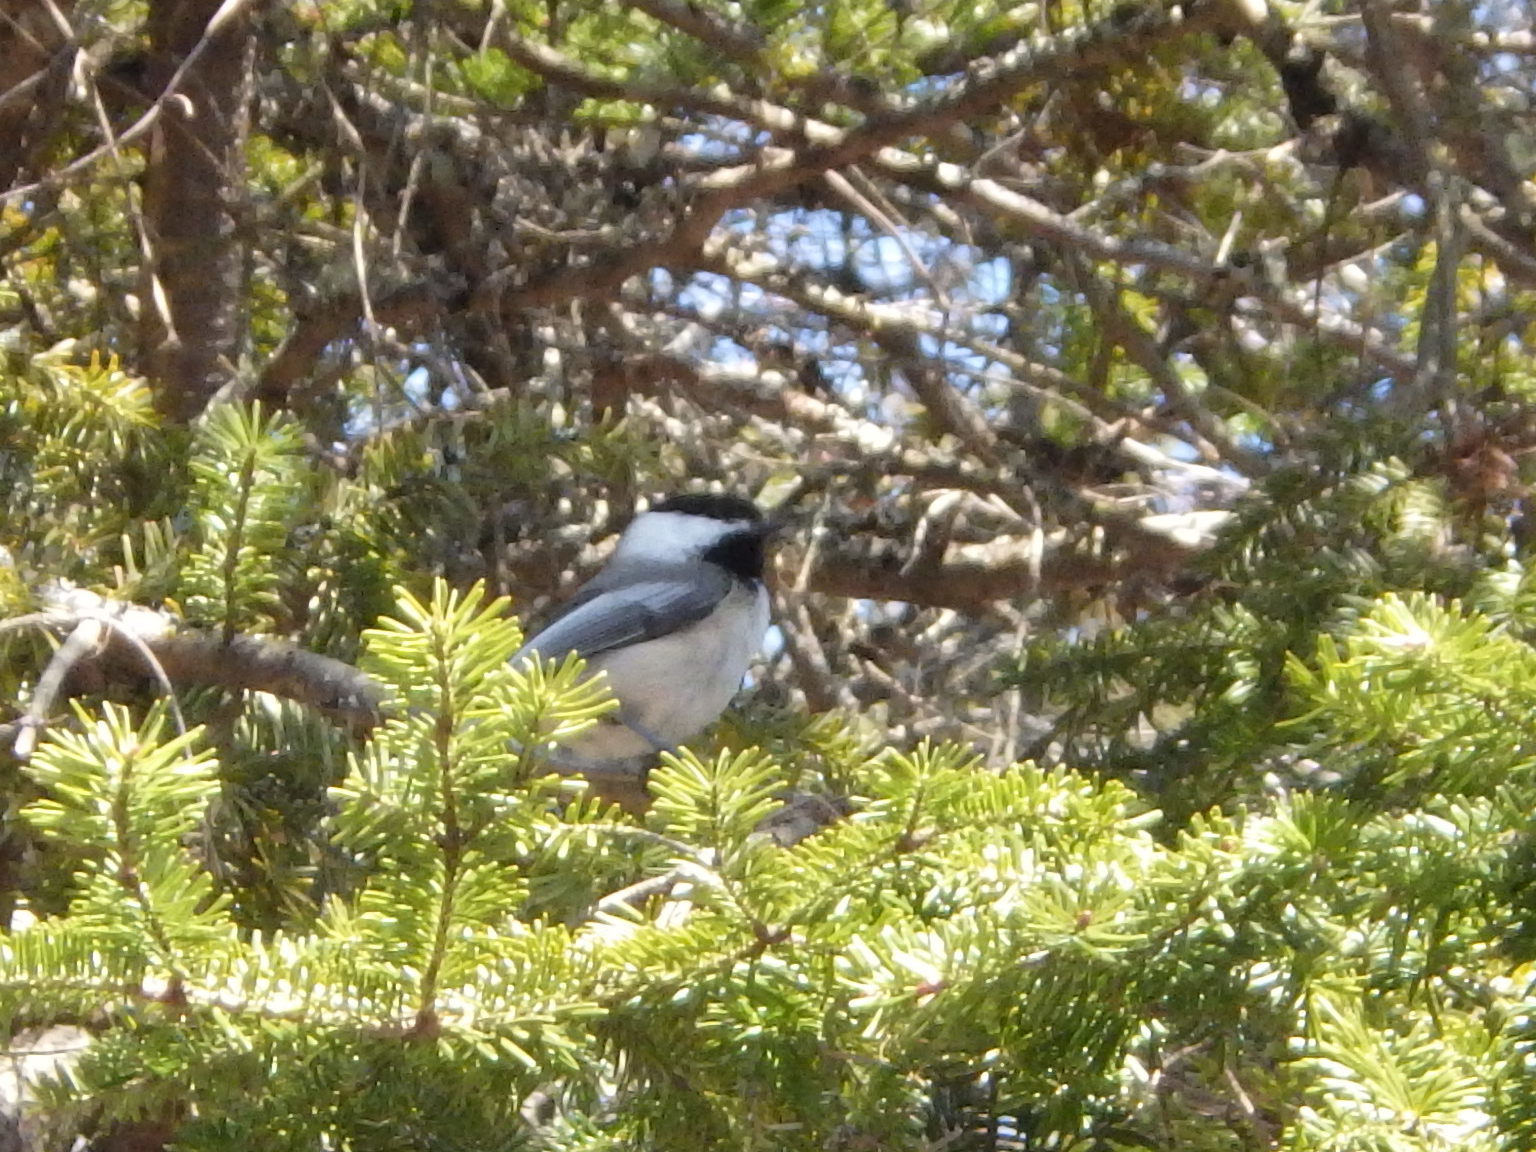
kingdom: Animalia
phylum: Chordata
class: Aves
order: Passeriformes
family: Paridae
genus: Poecile
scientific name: Poecile atricapillus
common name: Black-capped chickadee
